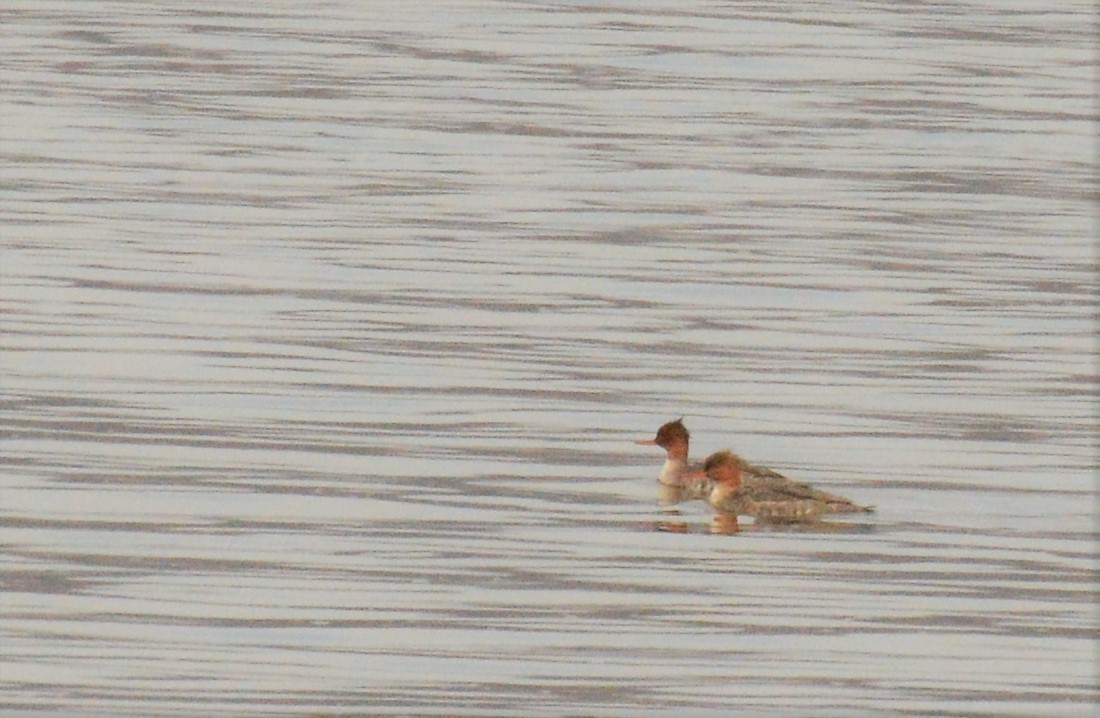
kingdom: Animalia
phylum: Chordata
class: Aves
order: Anseriformes
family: Anatidae
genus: Mergus
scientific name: Mergus serrator
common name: Red-breasted merganser
